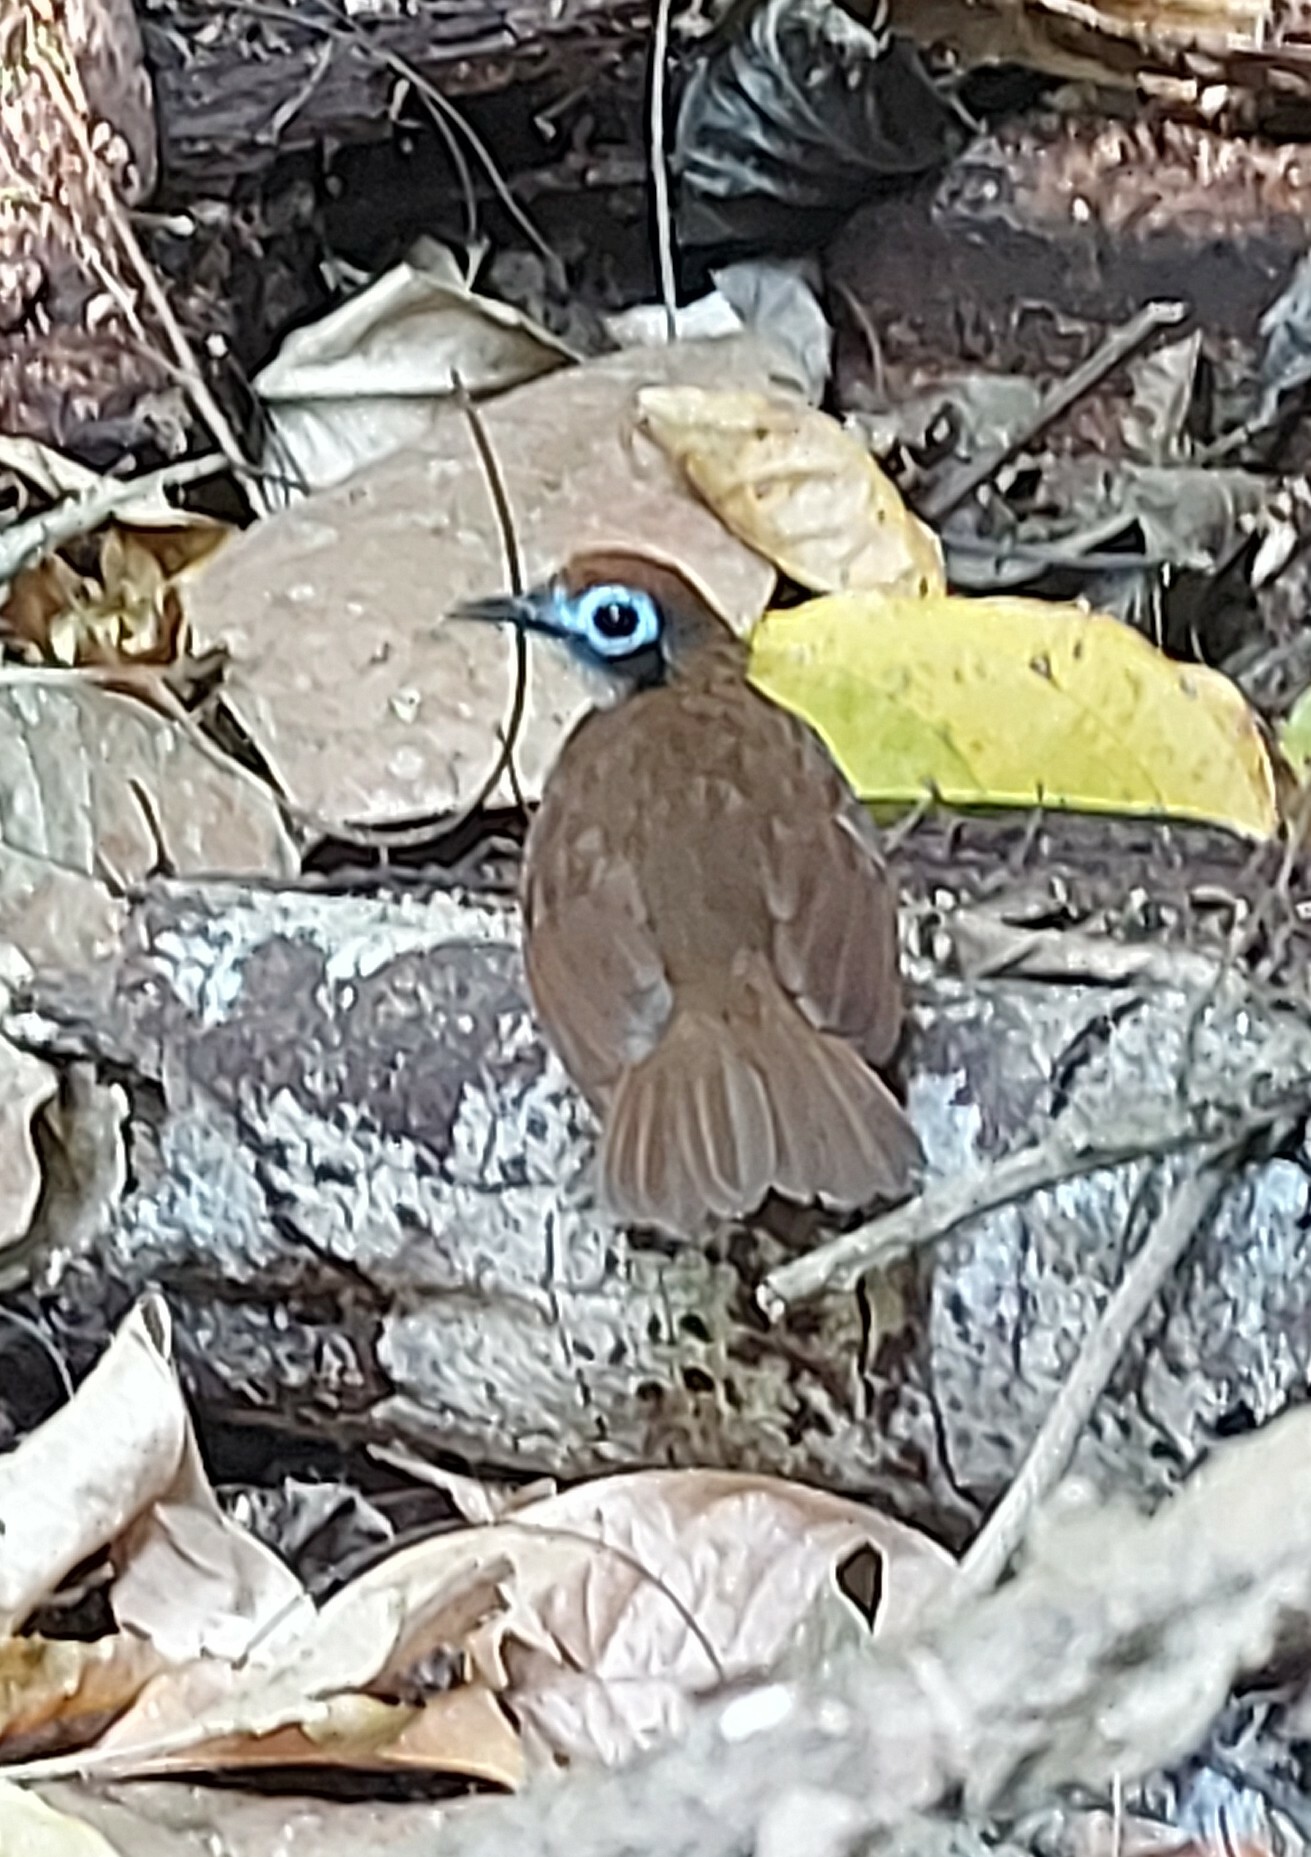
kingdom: Animalia
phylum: Chordata
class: Aves
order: Passeriformes
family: Thamnophilidae
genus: Gymnopithys
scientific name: Gymnopithys leucaspis
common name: White-cheeked antbird
